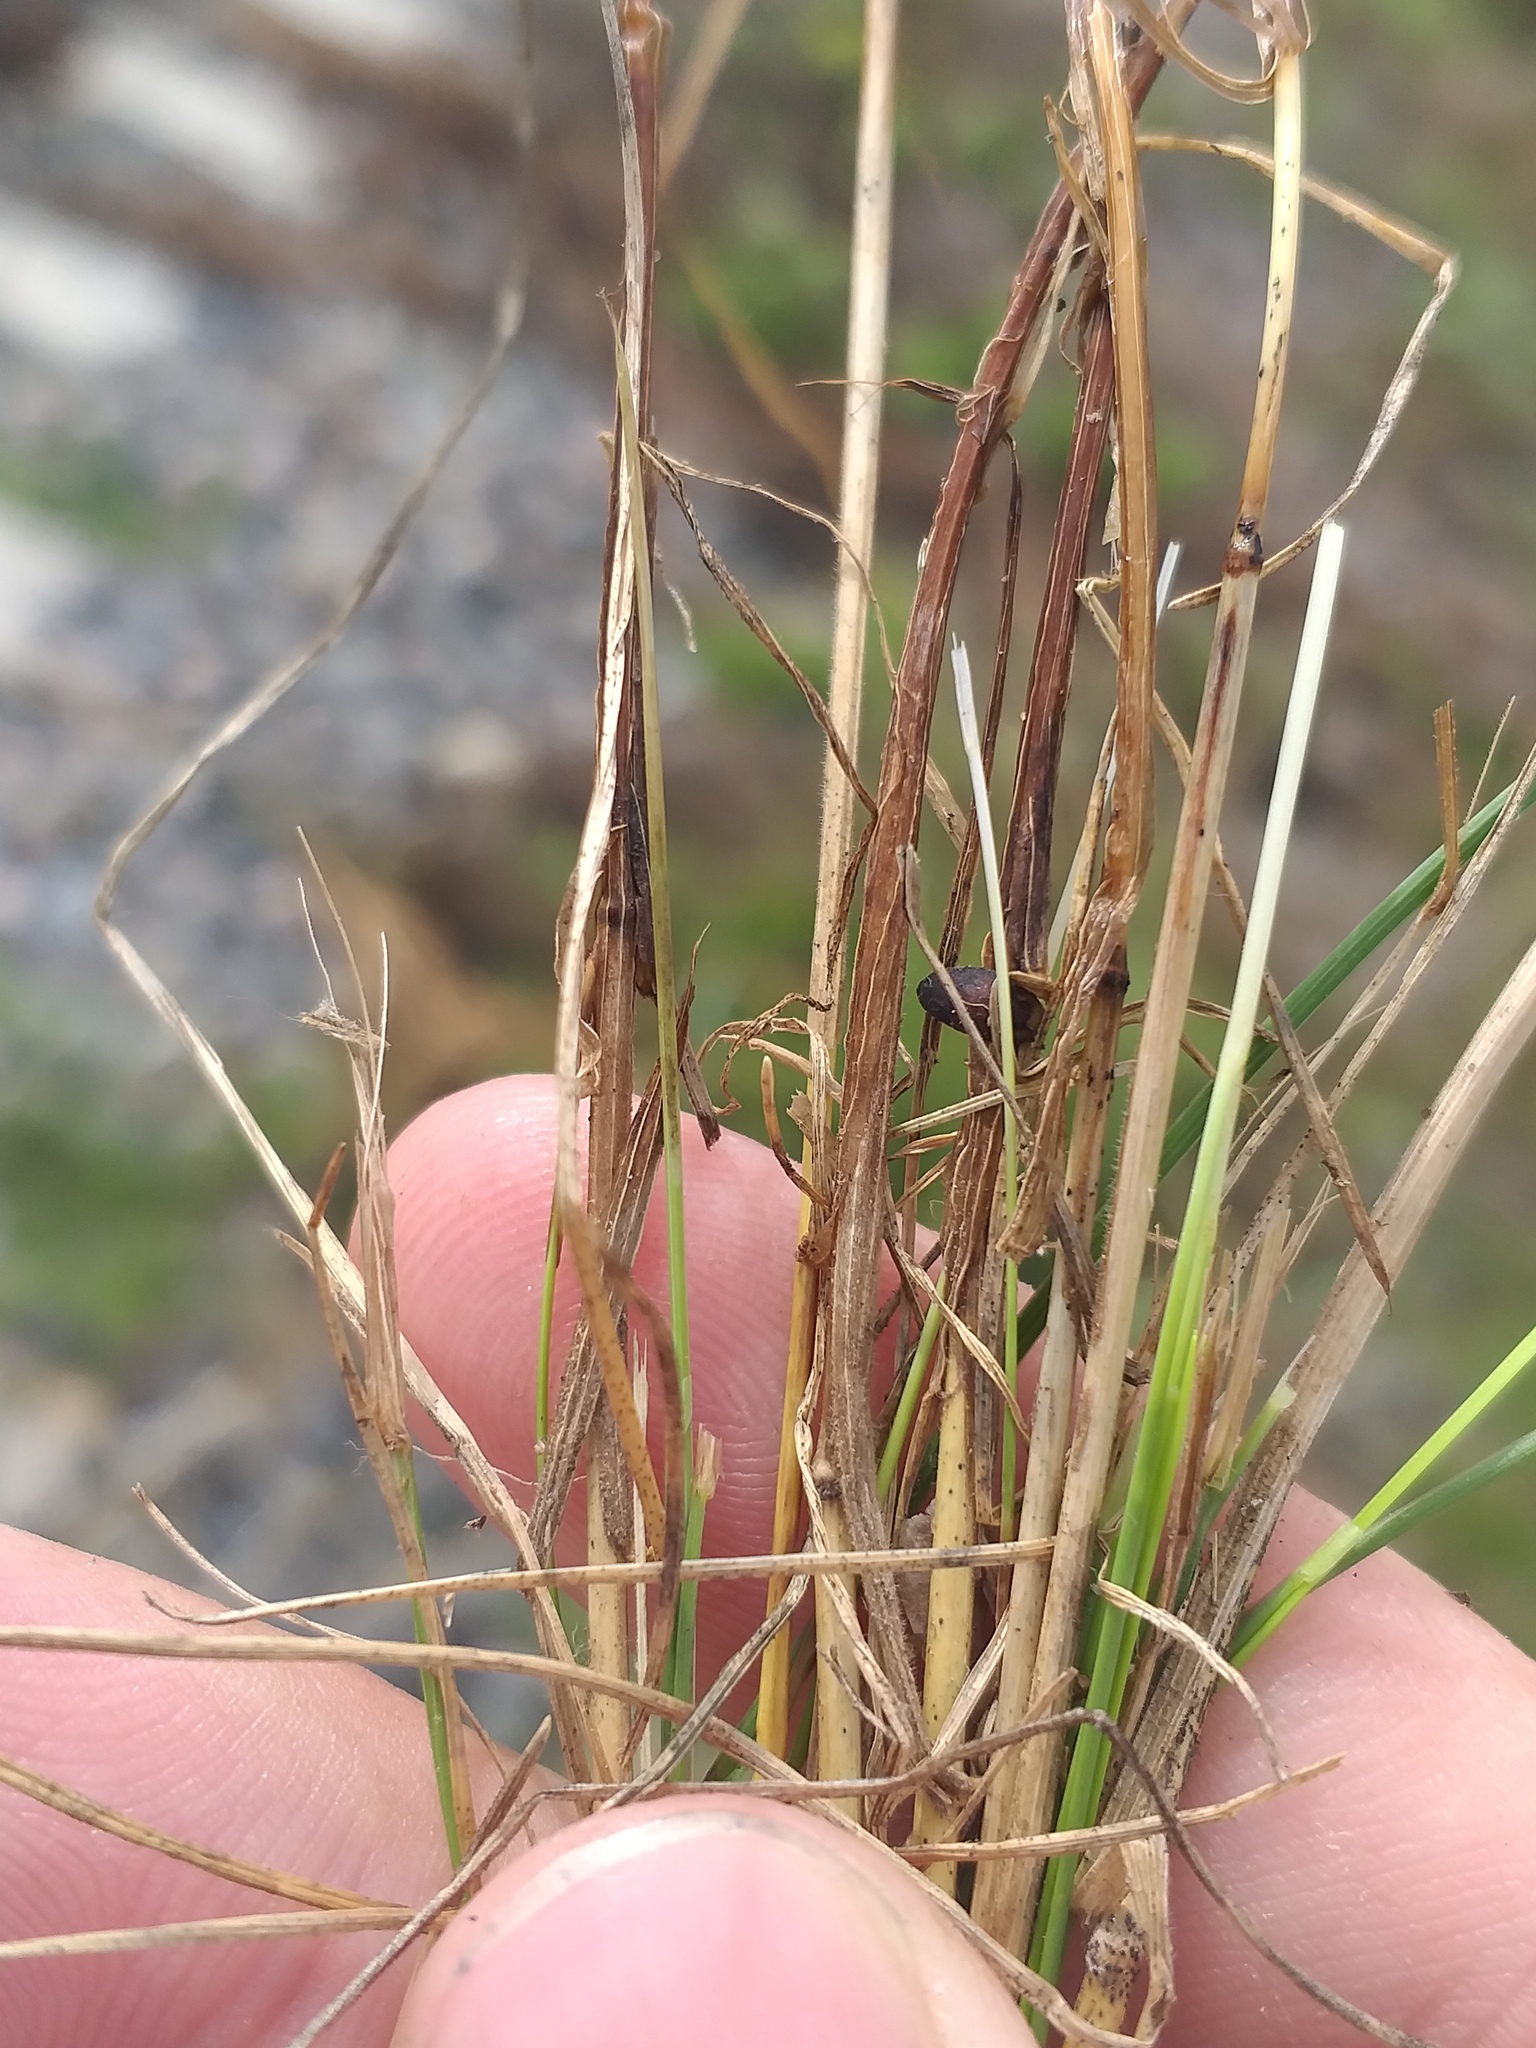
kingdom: Plantae
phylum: Tracheophyta
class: Liliopsida
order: Poales
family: Poaceae
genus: Festuca
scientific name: Festuca rubra
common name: Red fescue
